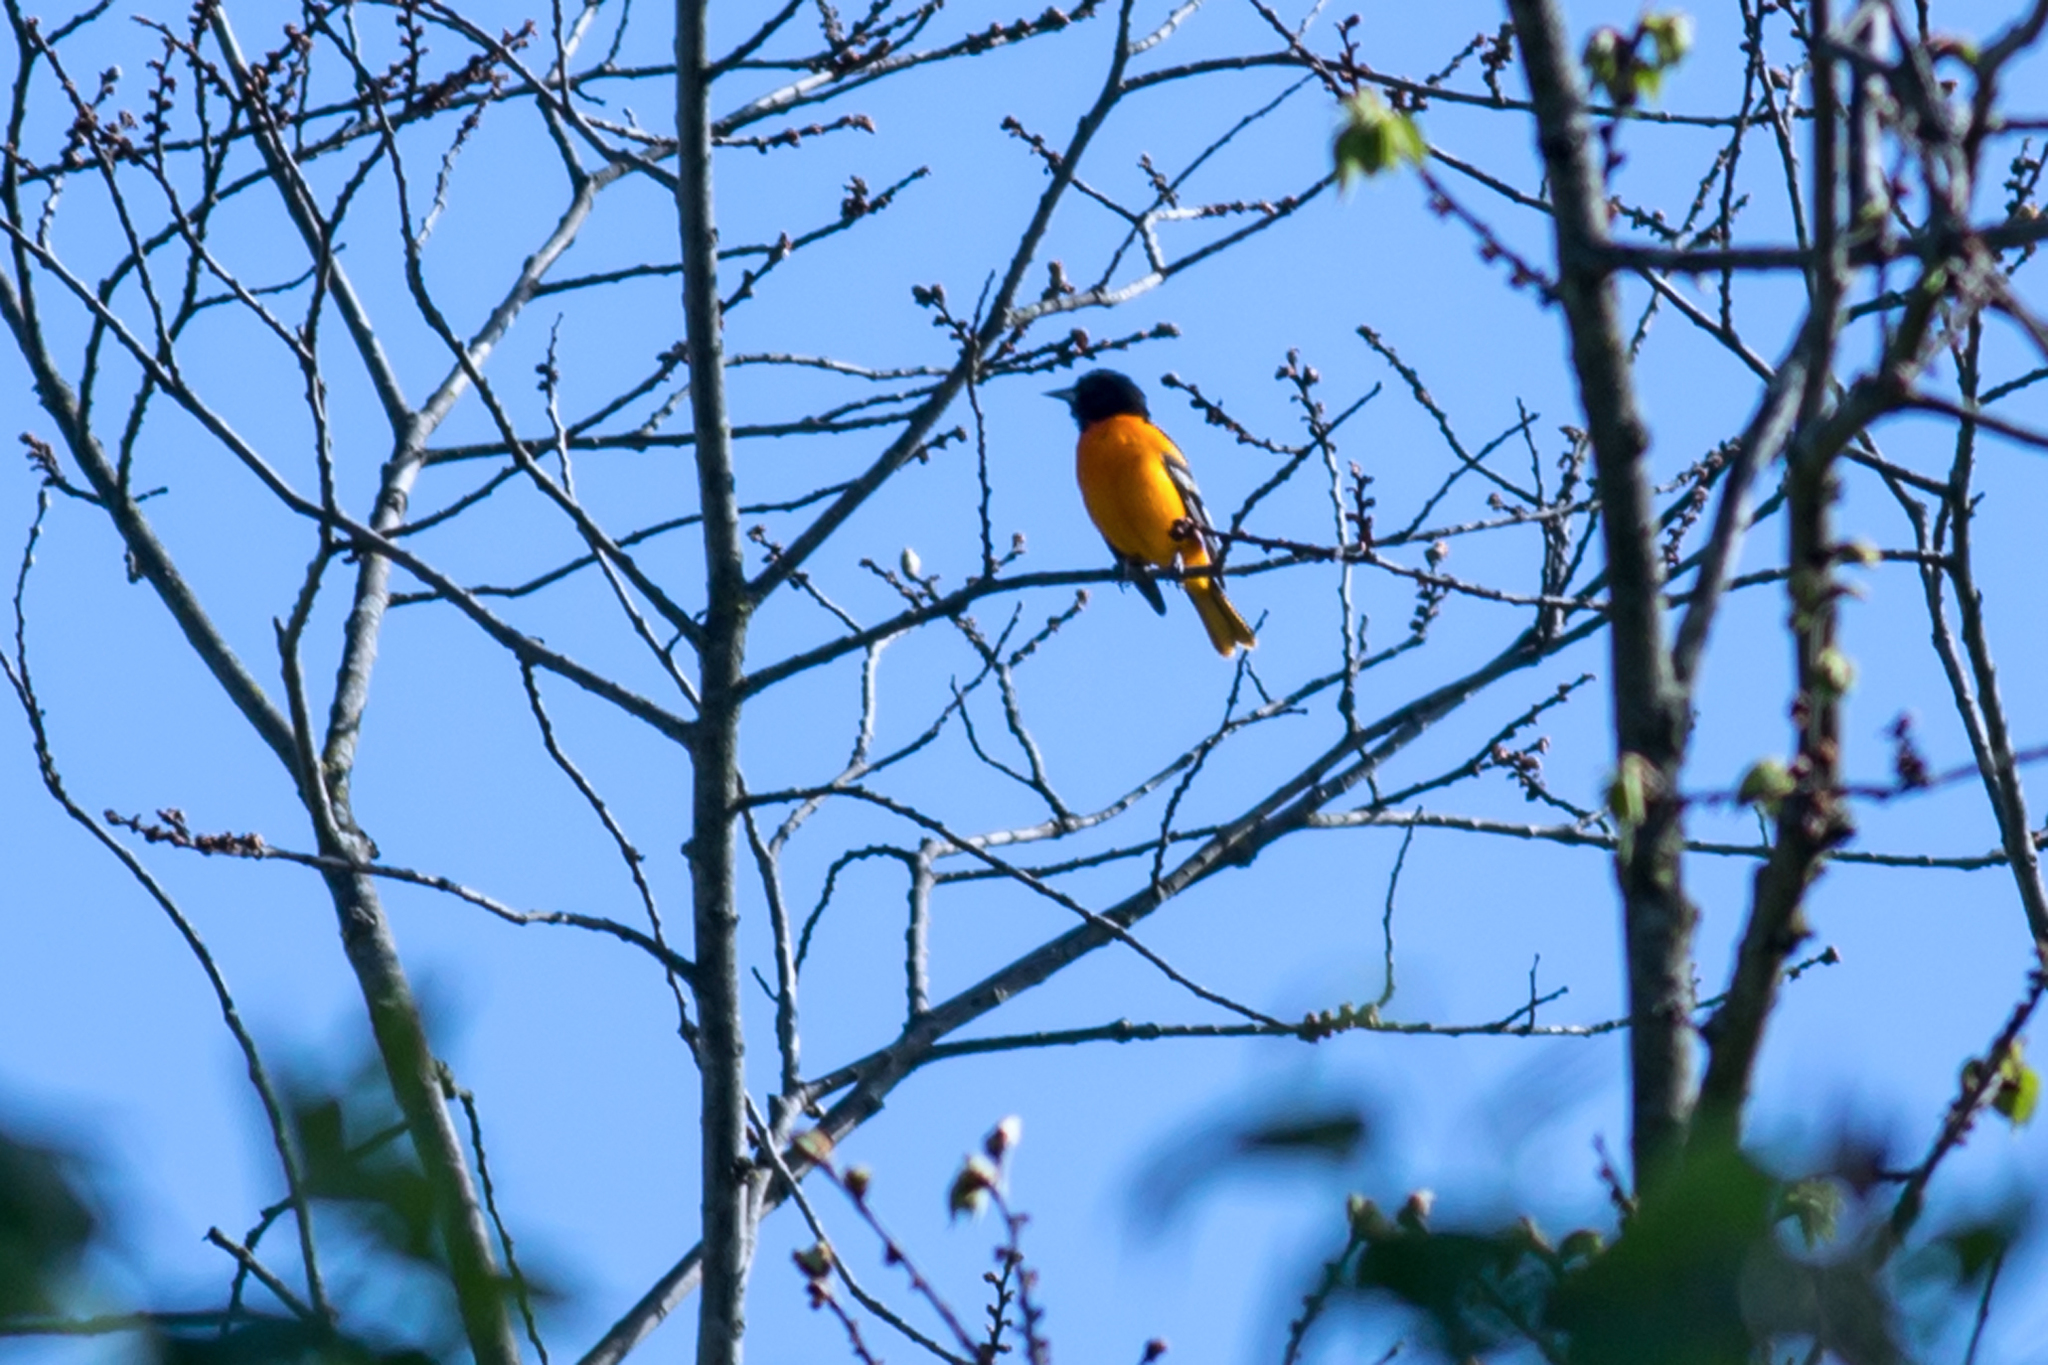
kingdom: Animalia
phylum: Chordata
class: Aves
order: Passeriformes
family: Icteridae
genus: Icterus
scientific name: Icterus galbula
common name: Baltimore oriole
